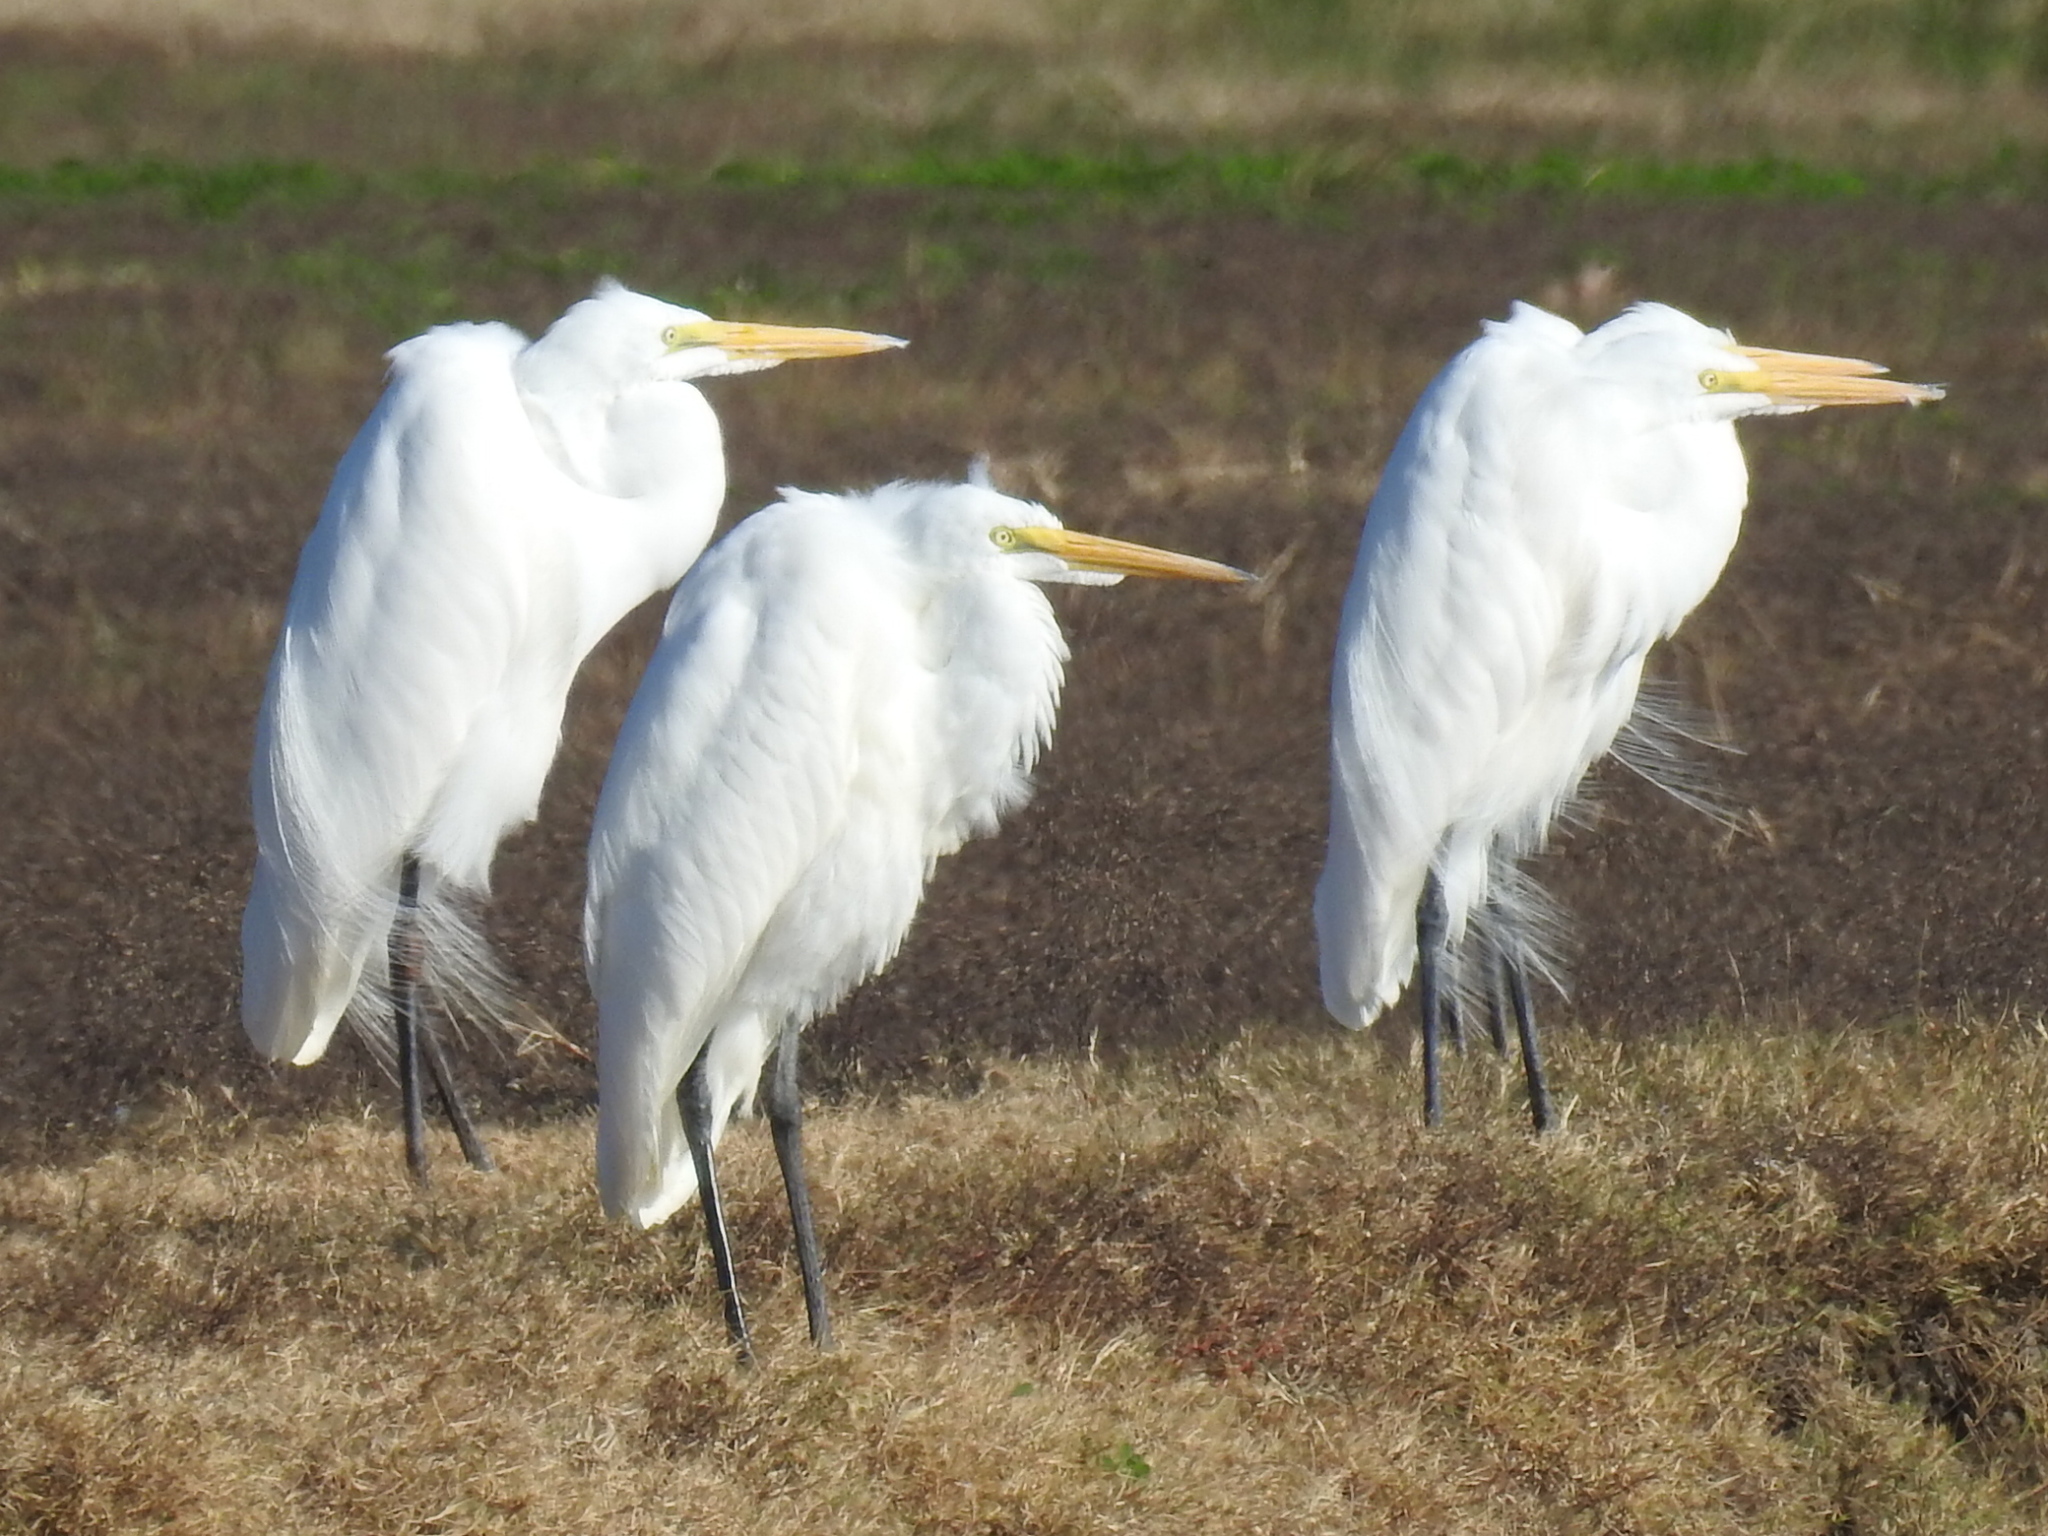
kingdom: Animalia
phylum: Chordata
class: Aves
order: Pelecaniformes
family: Ardeidae
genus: Ardea
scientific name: Ardea alba
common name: Great egret
